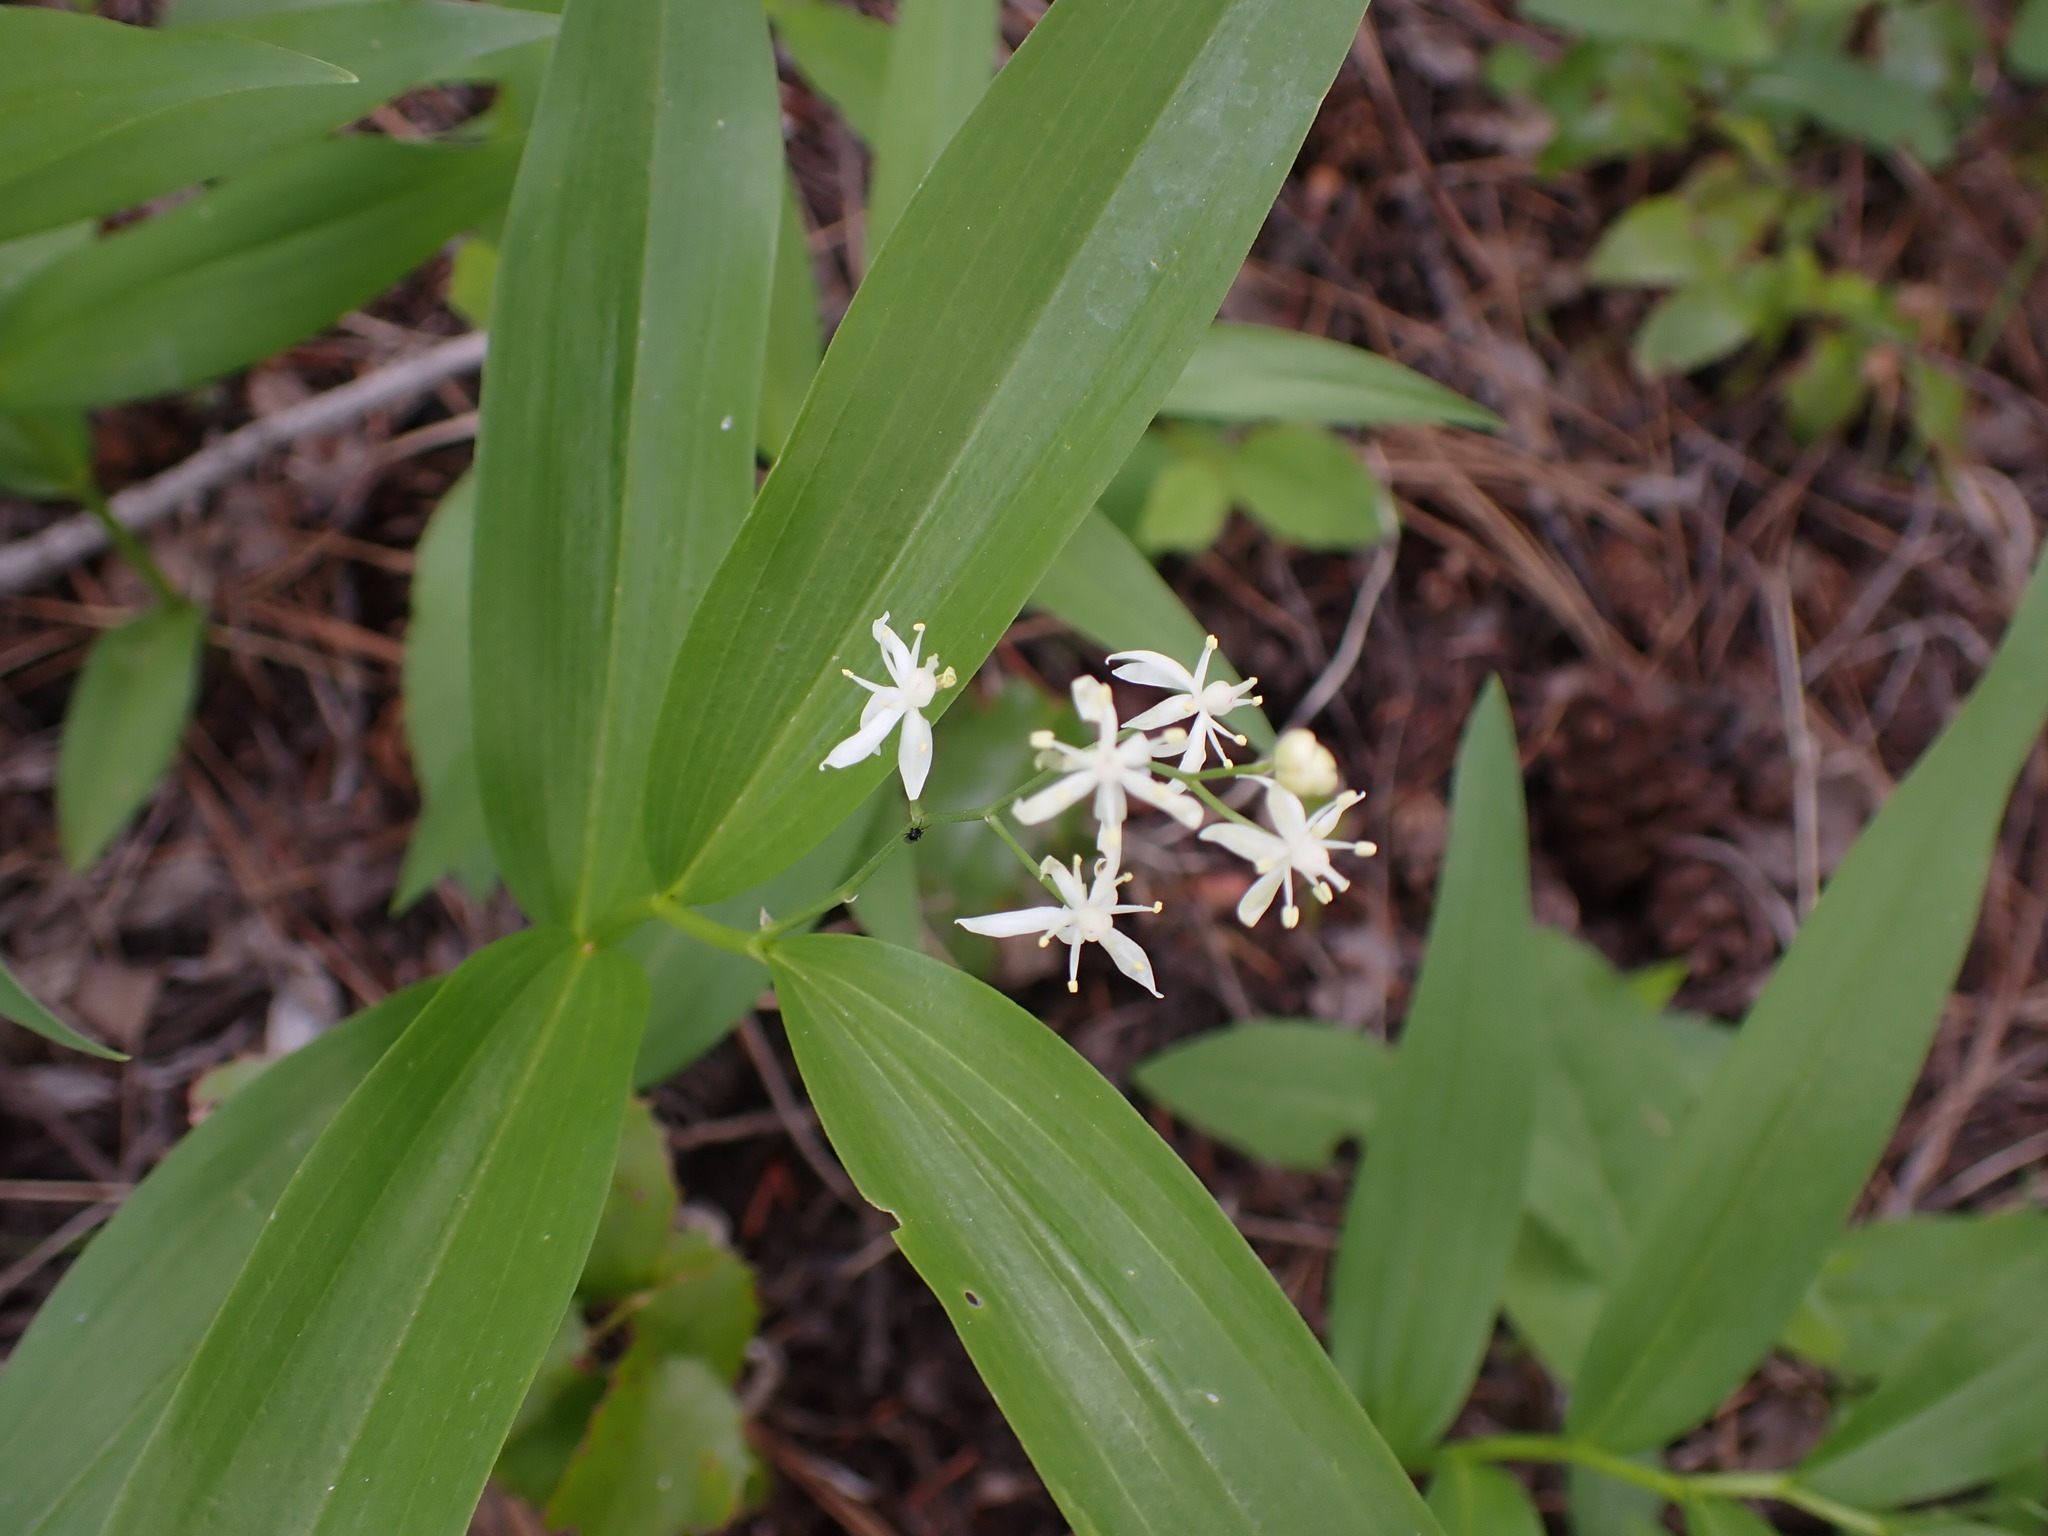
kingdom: Plantae
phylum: Tracheophyta
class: Liliopsida
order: Asparagales
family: Asparagaceae
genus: Maianthemum
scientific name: Maianthemum stellatum
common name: Little false solomon's seal
